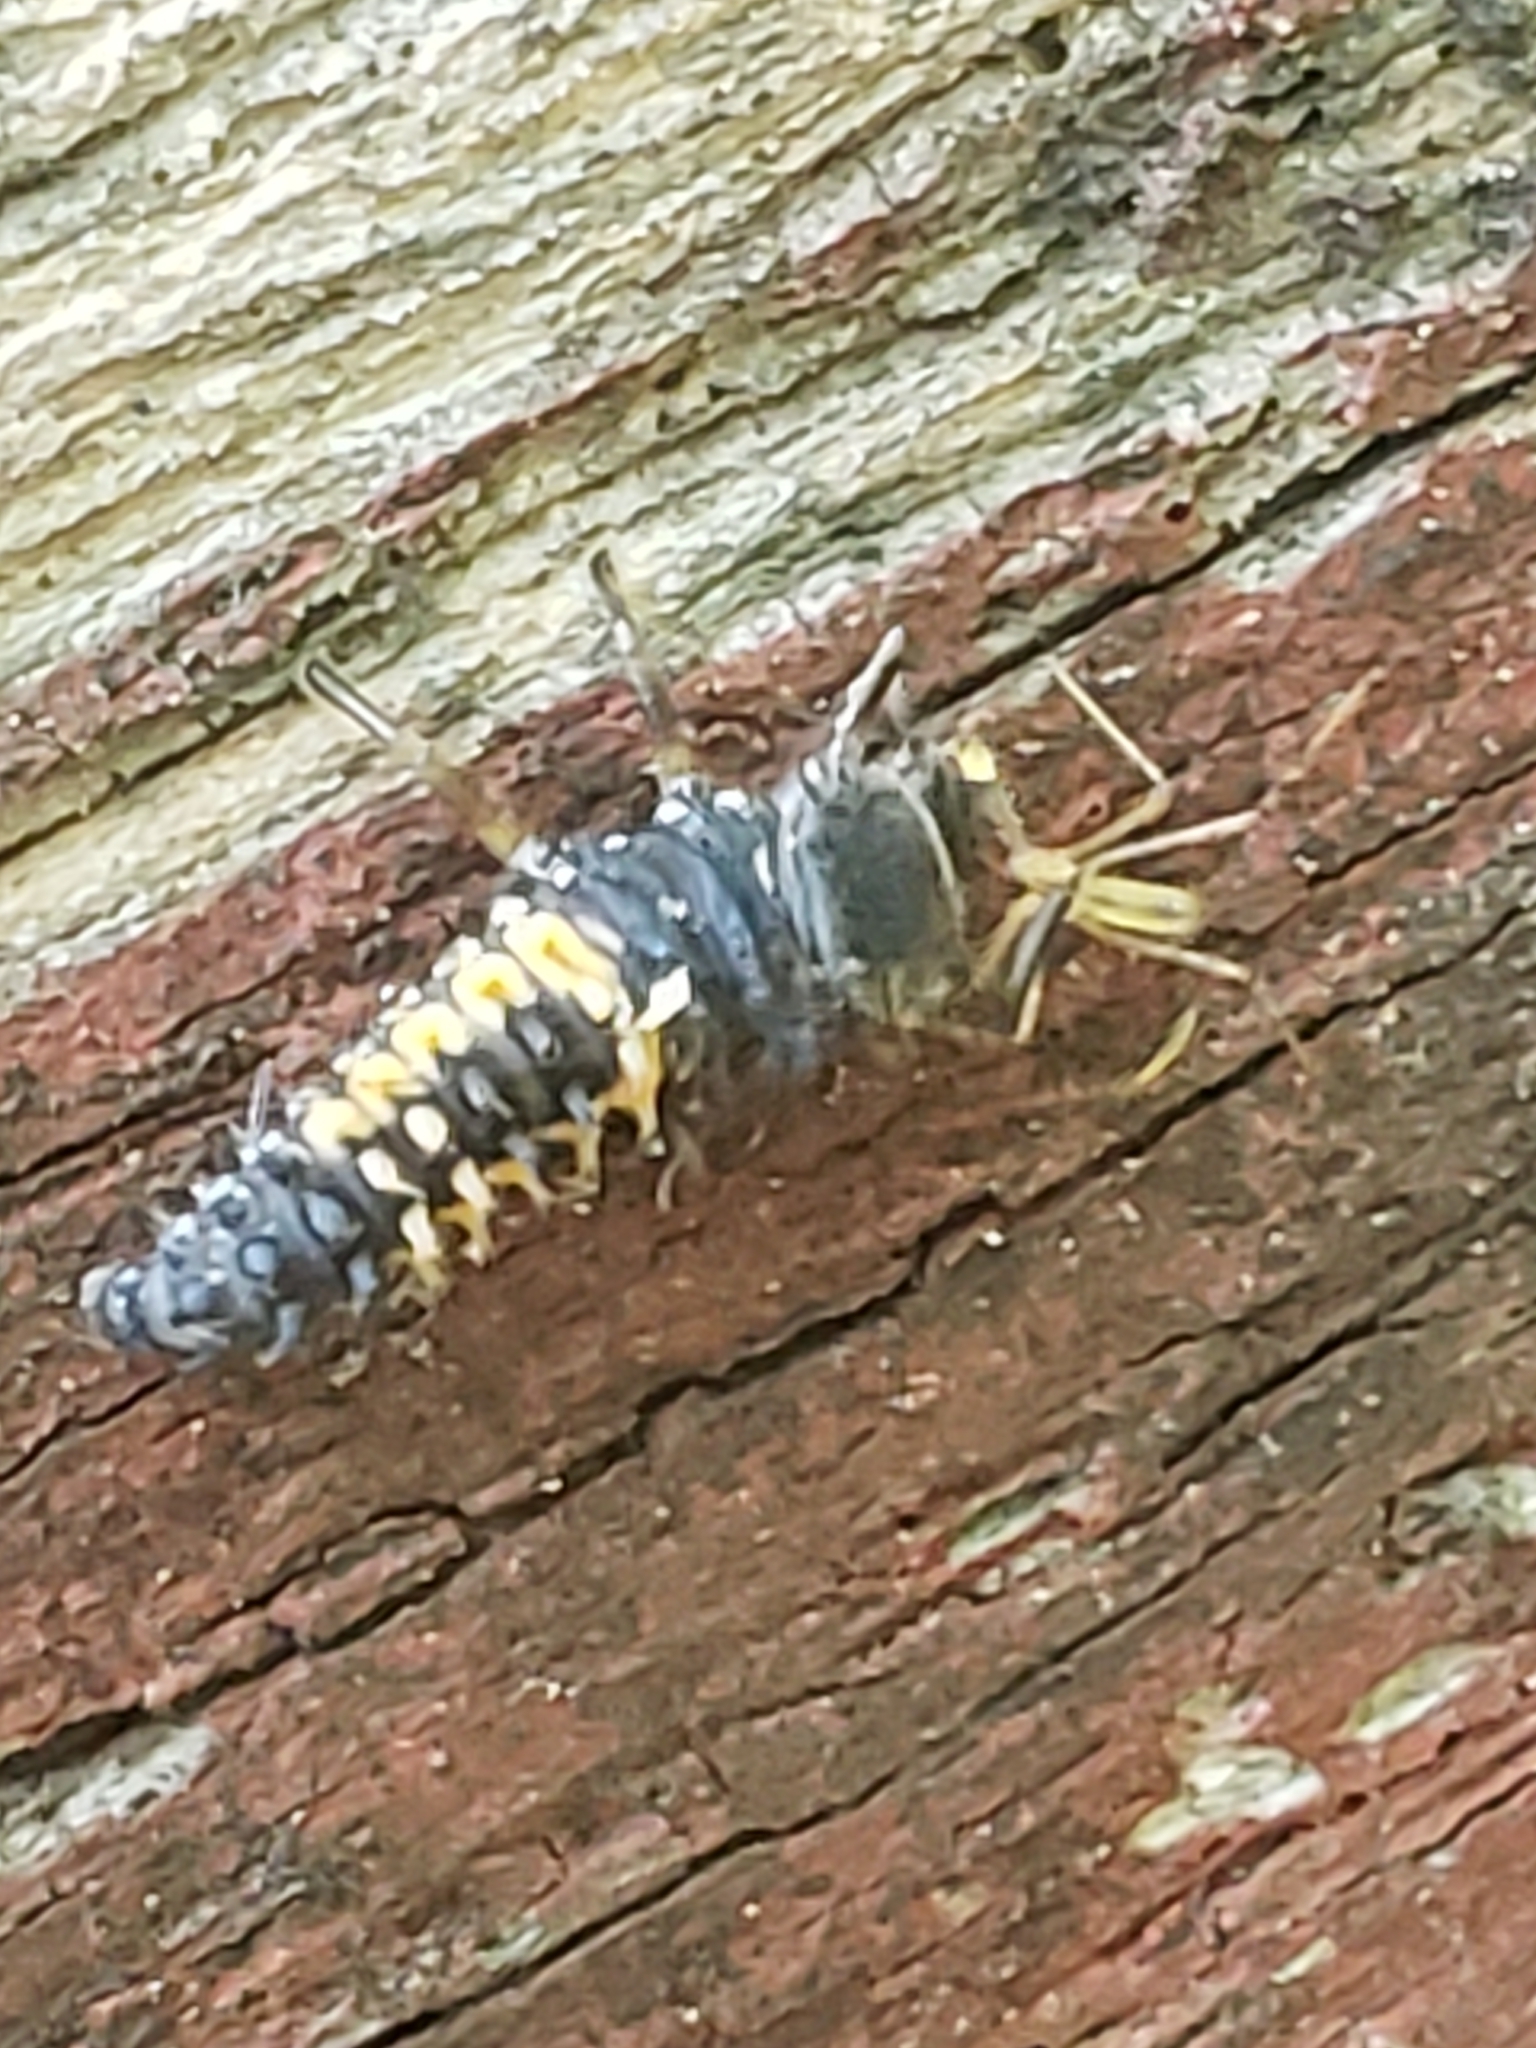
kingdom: Animalia
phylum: Arthropoda
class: Insecta
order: Coleoptera
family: Coccinellidae
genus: Harmonia
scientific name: Harmonia axyridis
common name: Harlequin ladybird
